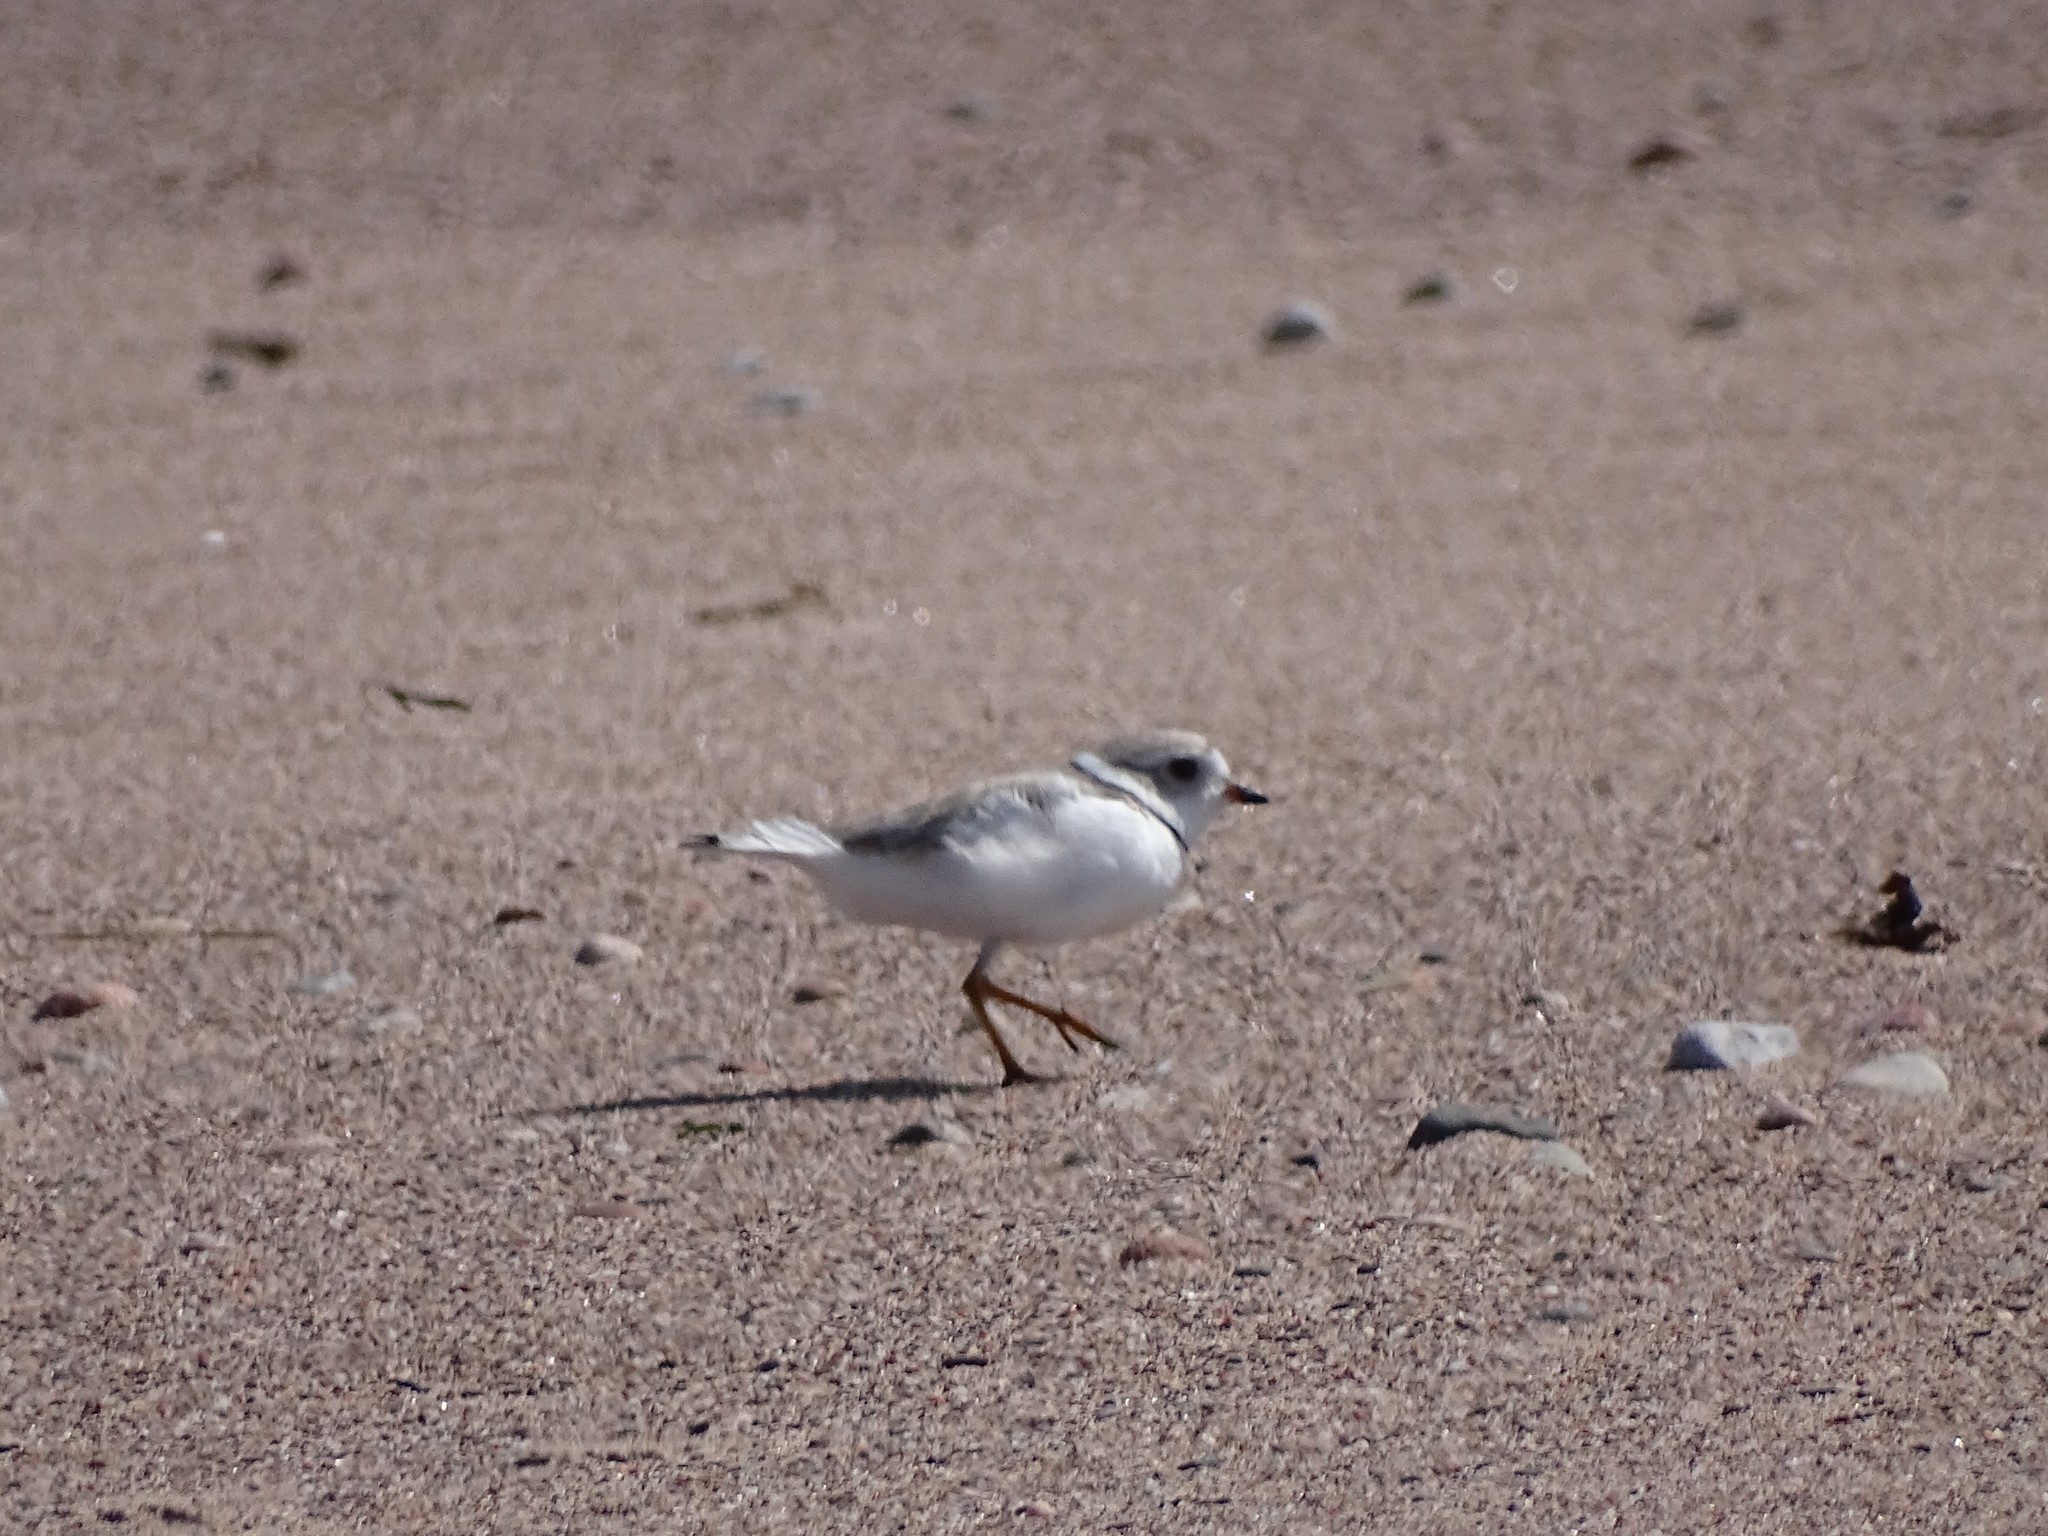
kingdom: Animalia
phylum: Chordata
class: Aves
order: Charadriiformes
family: Charadriidae
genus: Charadrius
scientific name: Charadrius melodus
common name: Piping plover
